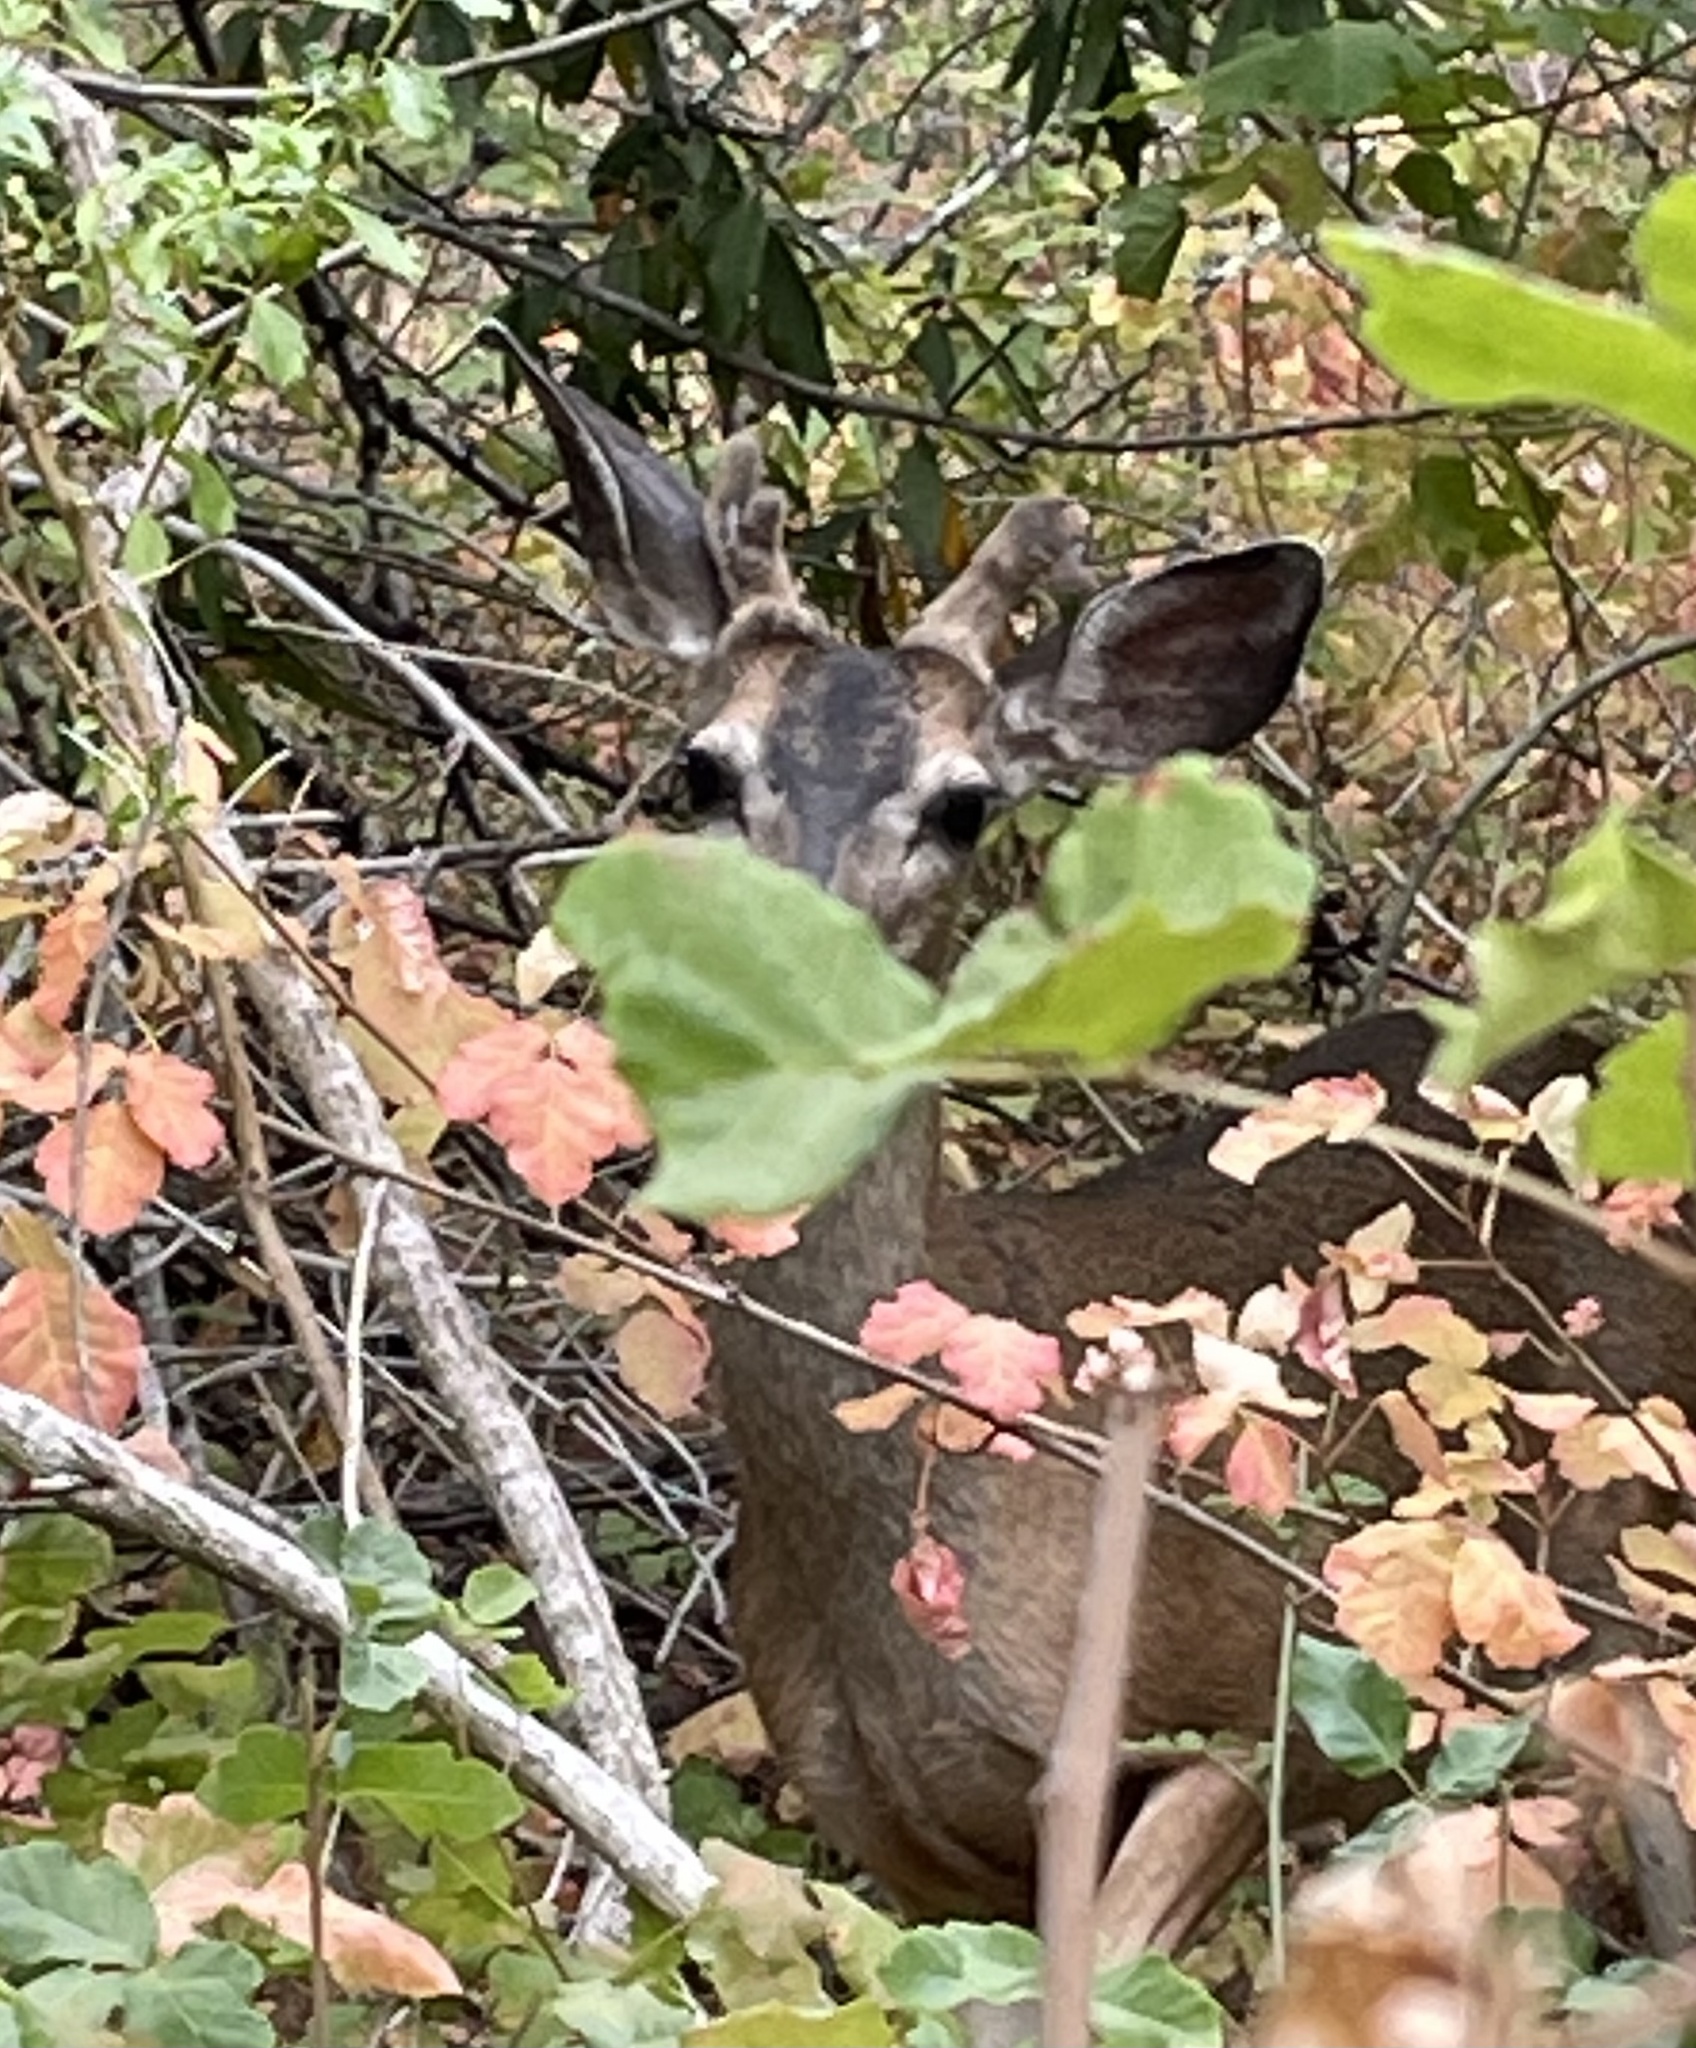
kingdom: Animalia
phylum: Chordata
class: Mammalia
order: Artiodactyla
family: Cervidae
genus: Odocoileus
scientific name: Odocoileus hemionus
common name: Mule deer
